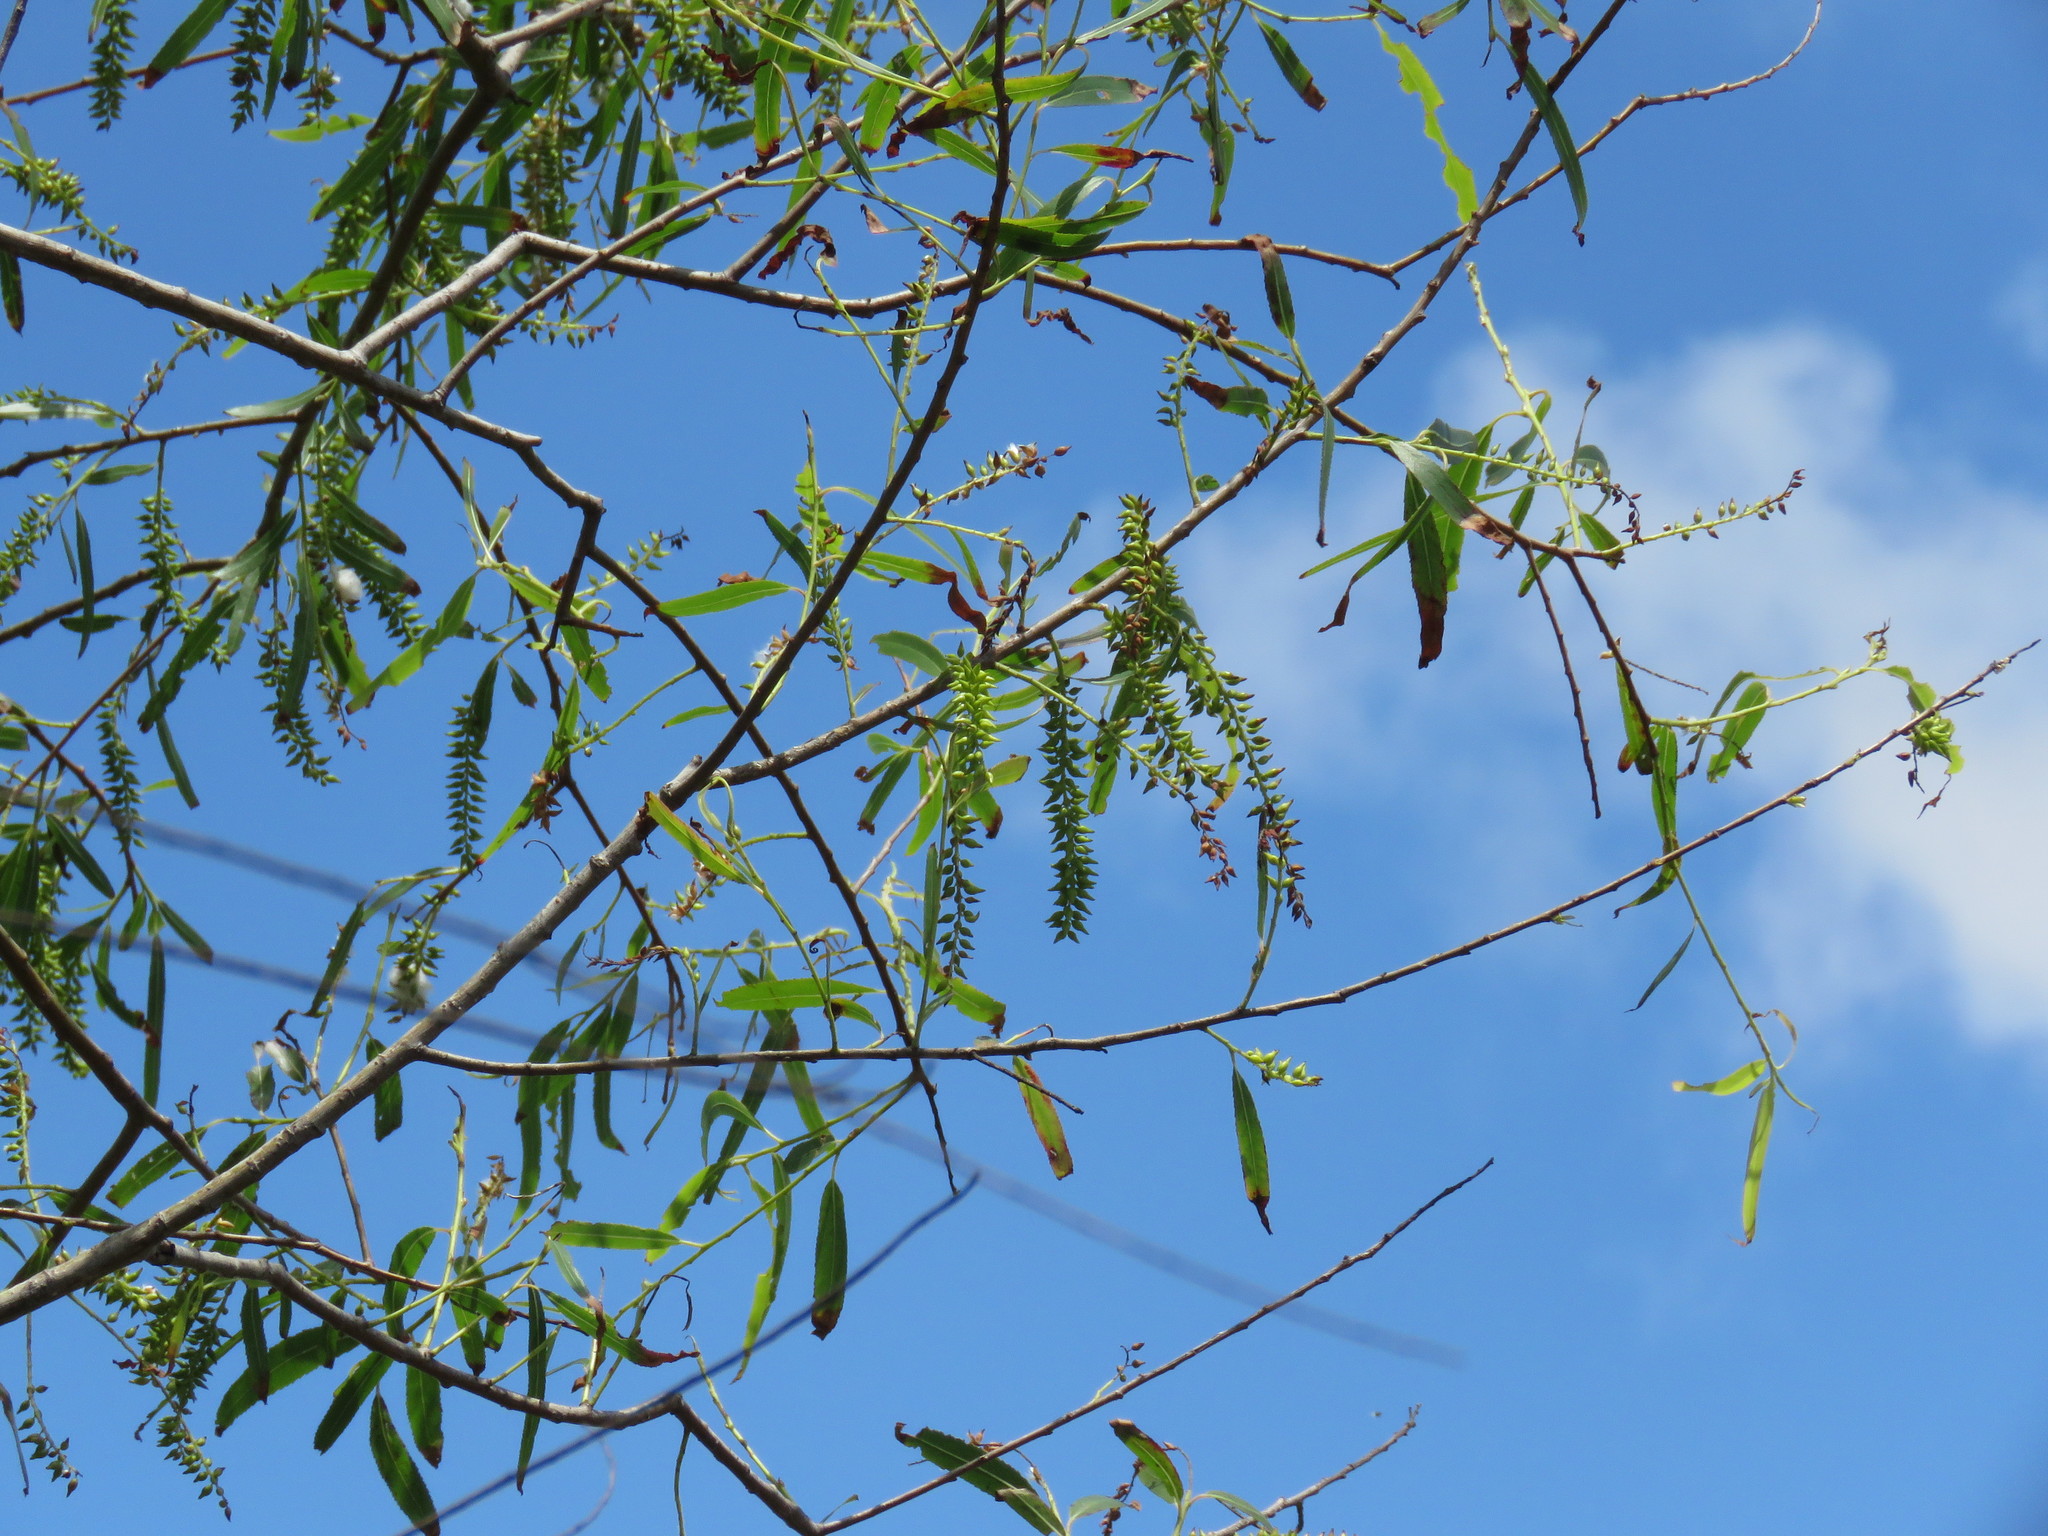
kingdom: Plantae
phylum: Tracheophyta
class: Magnoliopsida
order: Malpighiales
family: Salicaceae
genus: Salix
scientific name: Salix nigra
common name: Black willow
